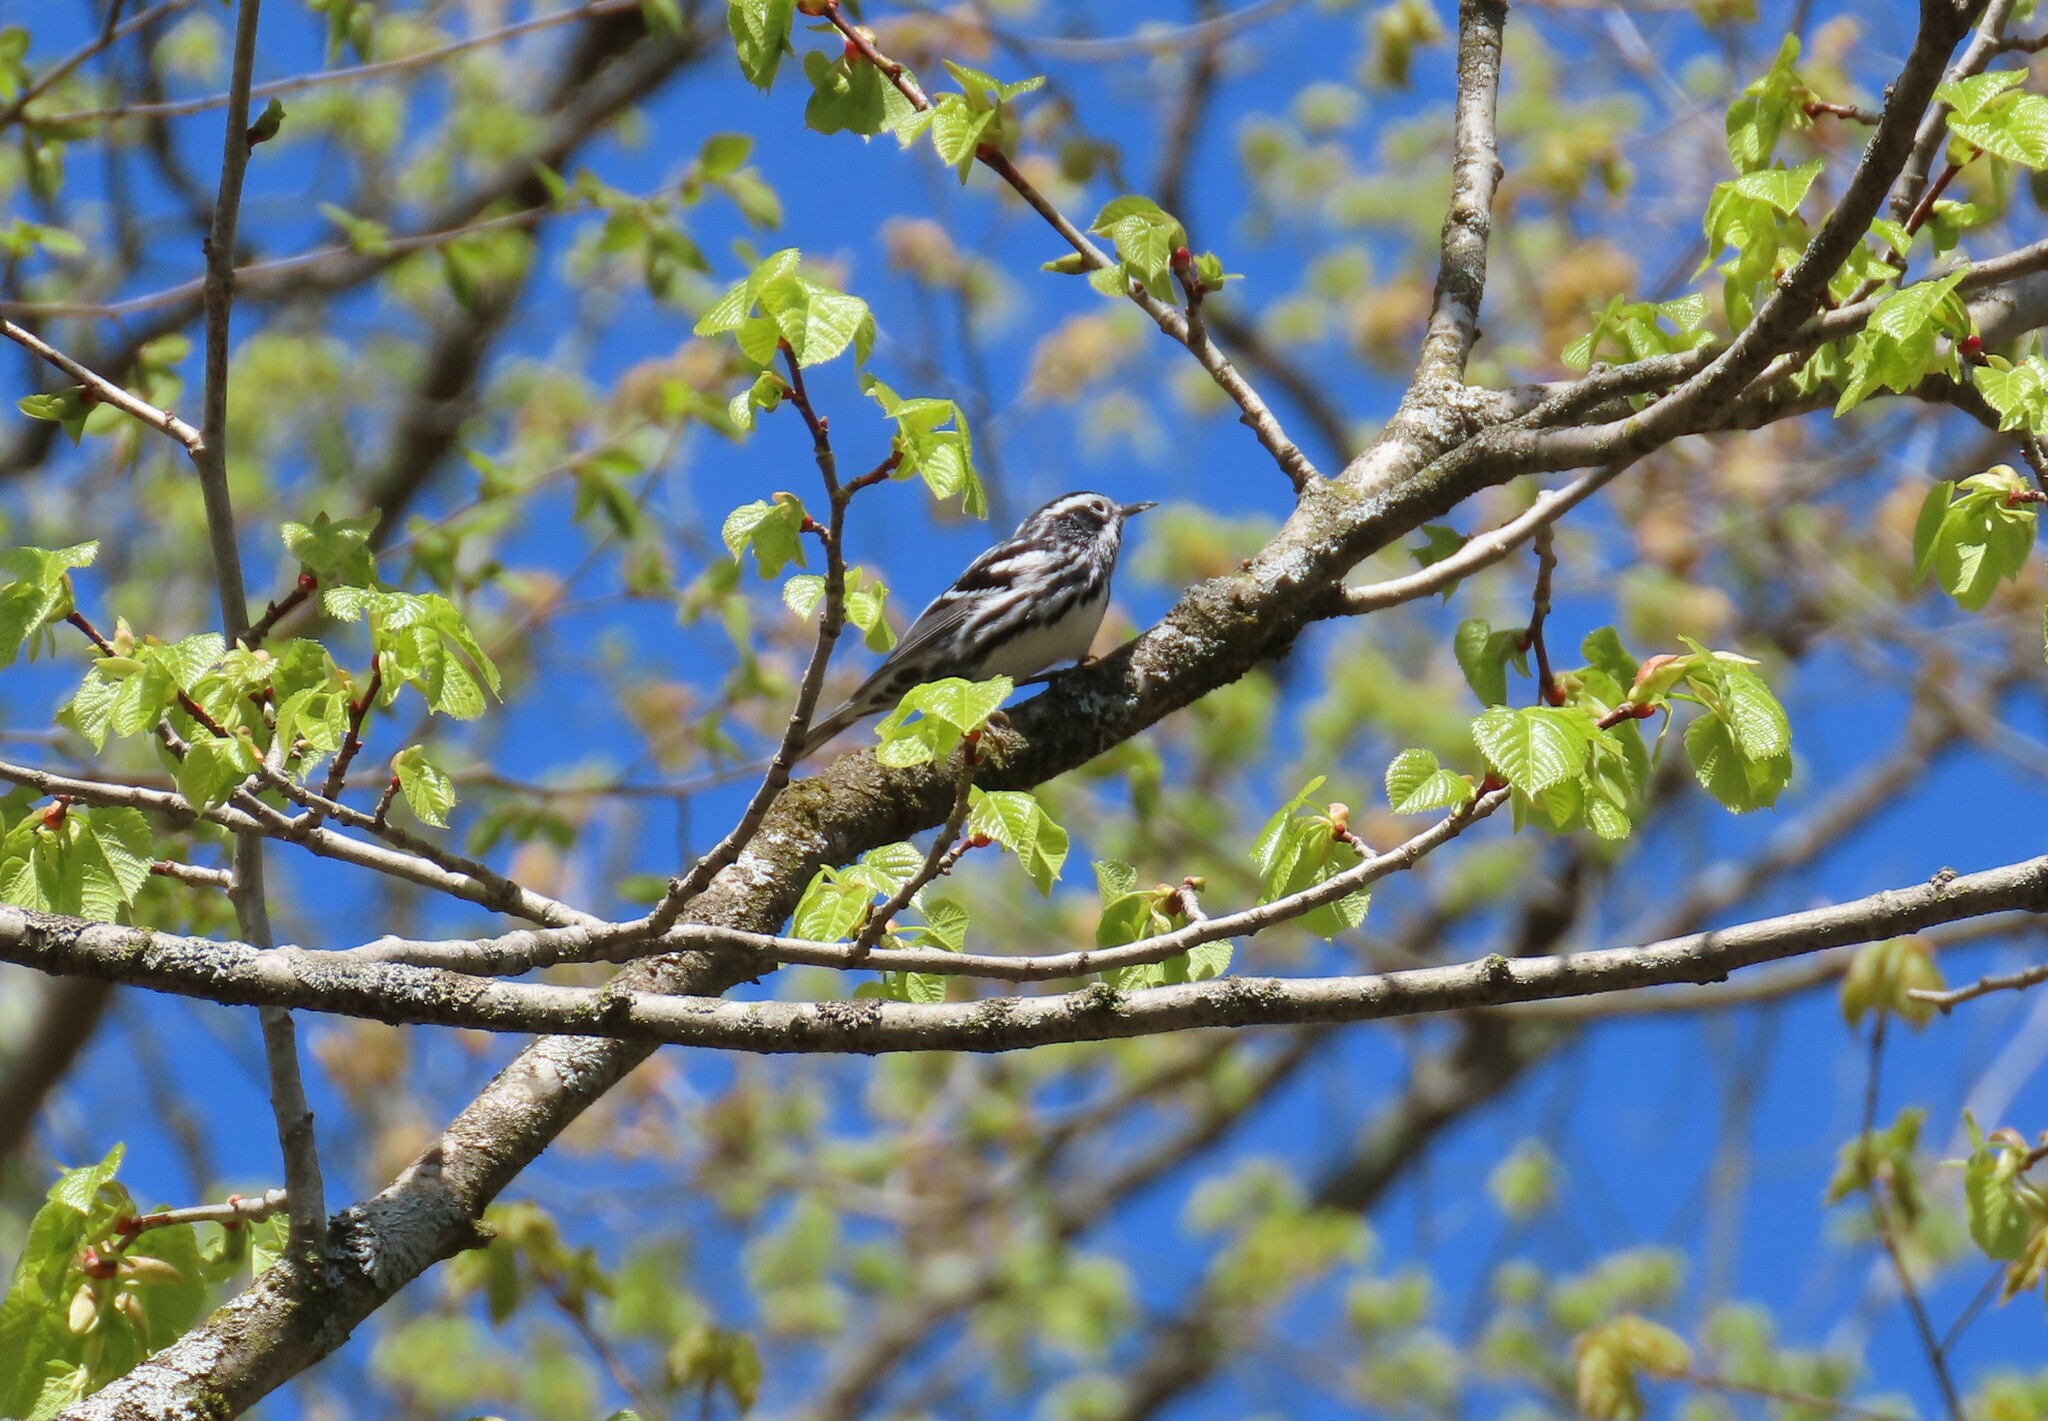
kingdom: Animalia
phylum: Chordata
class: Aves
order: Passeriformes
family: Parulidae
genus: Mniotilta
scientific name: Mniotilta varia
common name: Black-and-white warbler
